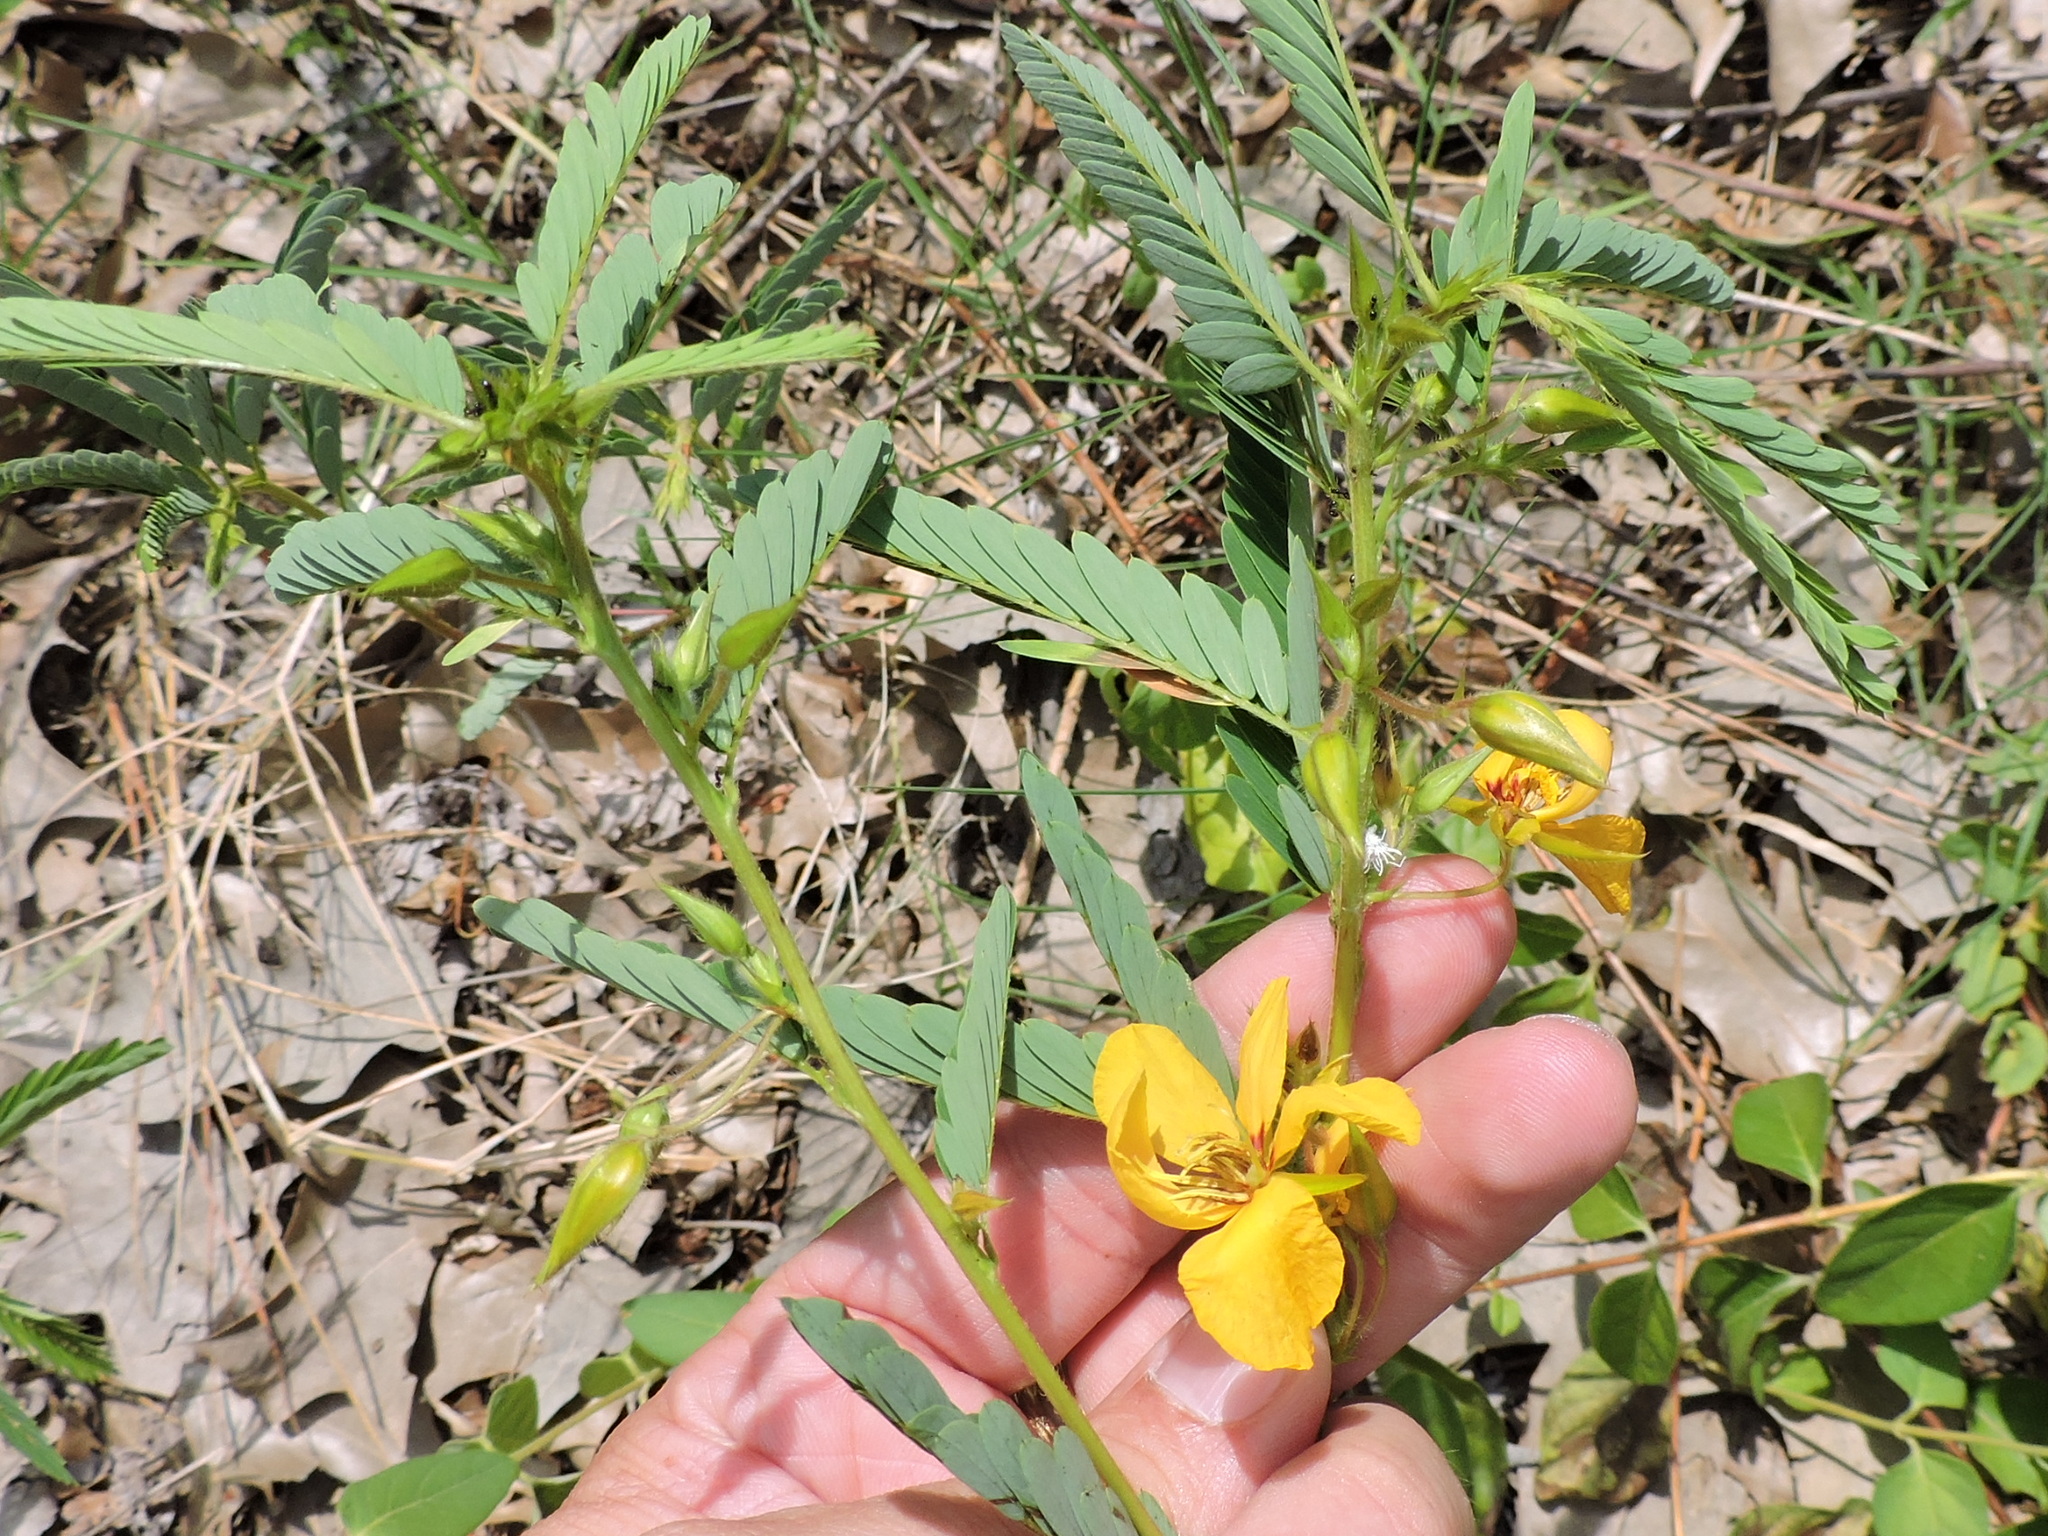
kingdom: Plantae
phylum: Tracheophyta
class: Magnoliopsida
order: Fabales
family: Fabaceae
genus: Chamaecrista
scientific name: Chamaecrista fasciculata
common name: Golden cassia
